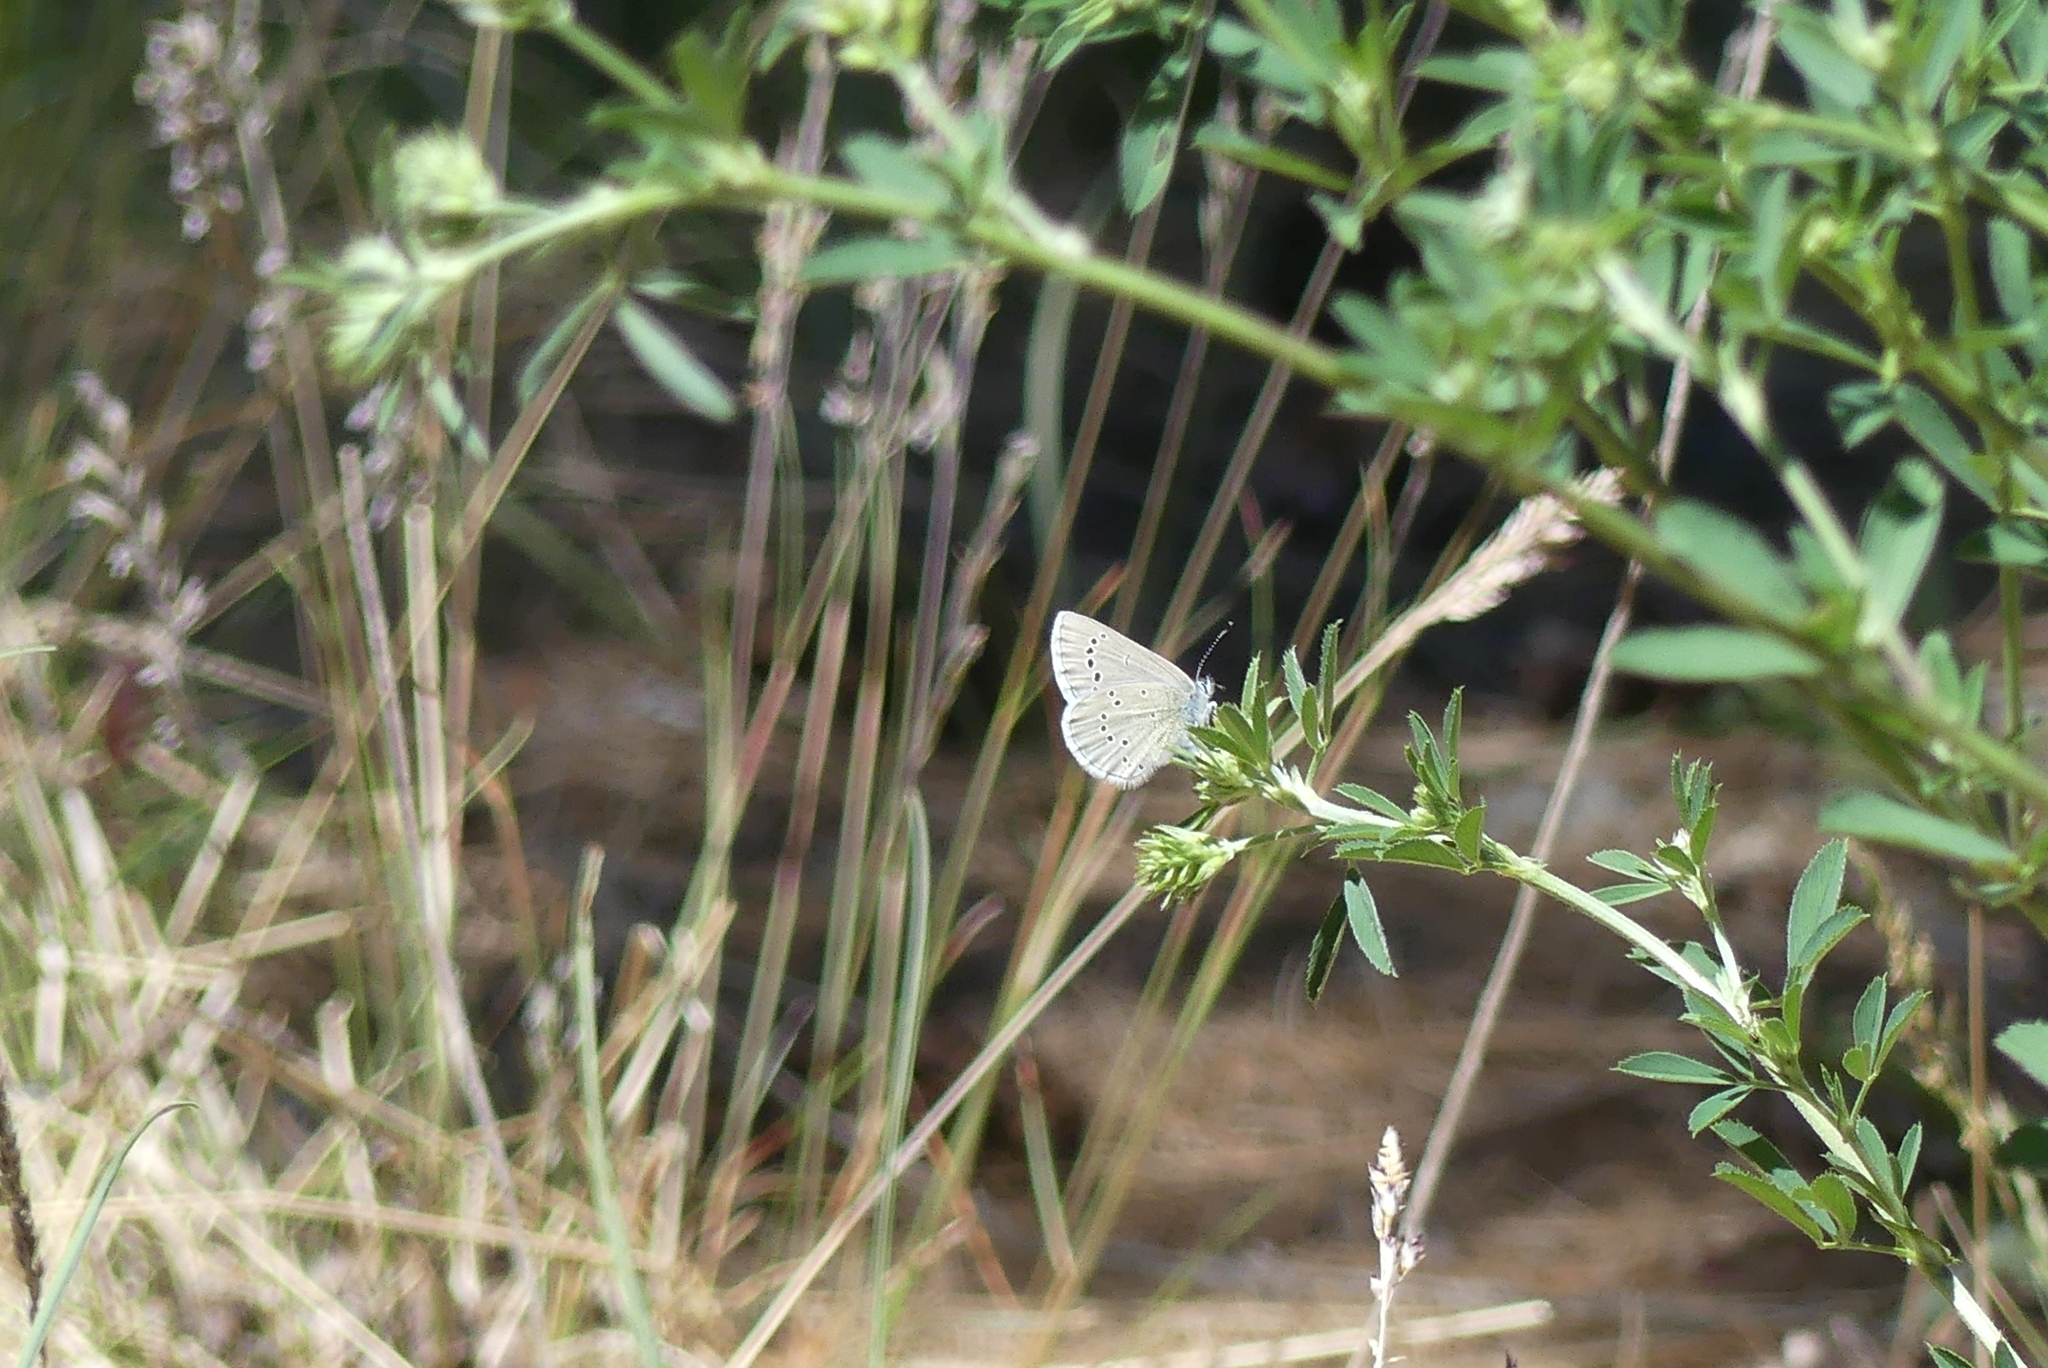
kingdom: Animalia
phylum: Arthropoda
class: Insecta
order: Lepidoptera
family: Lycaenidae
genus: Glaucopsyche
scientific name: Glaucopsyche lygdamus
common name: Silvery blue
